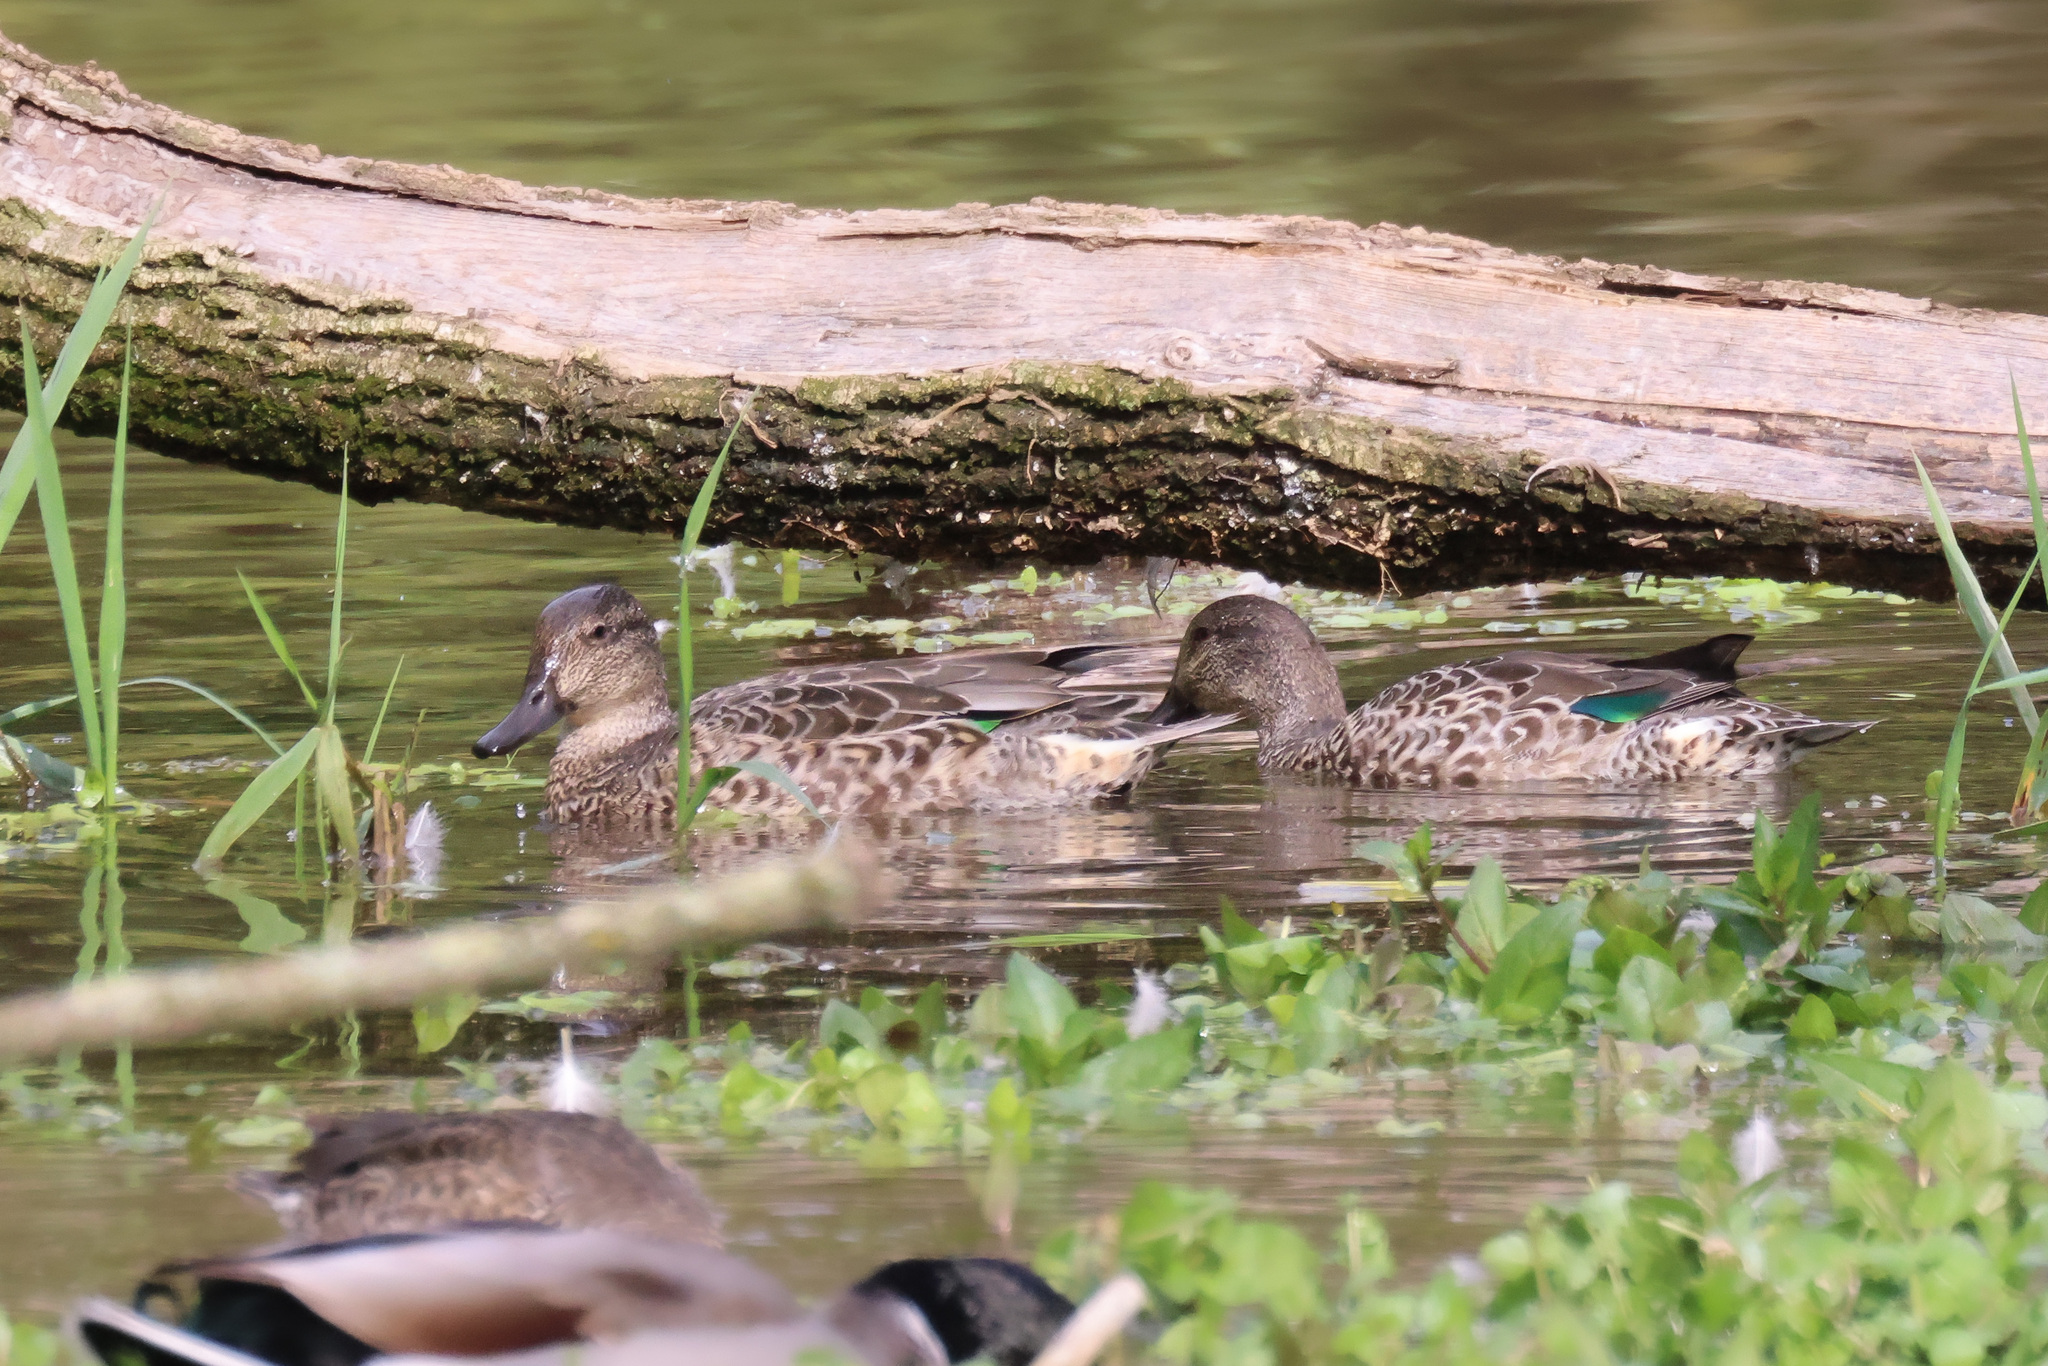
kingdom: Animalia
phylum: Chordata
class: Aves
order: Anseriformes
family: Anatidae
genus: Anas
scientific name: Anas crecca
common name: Eurasian teal
